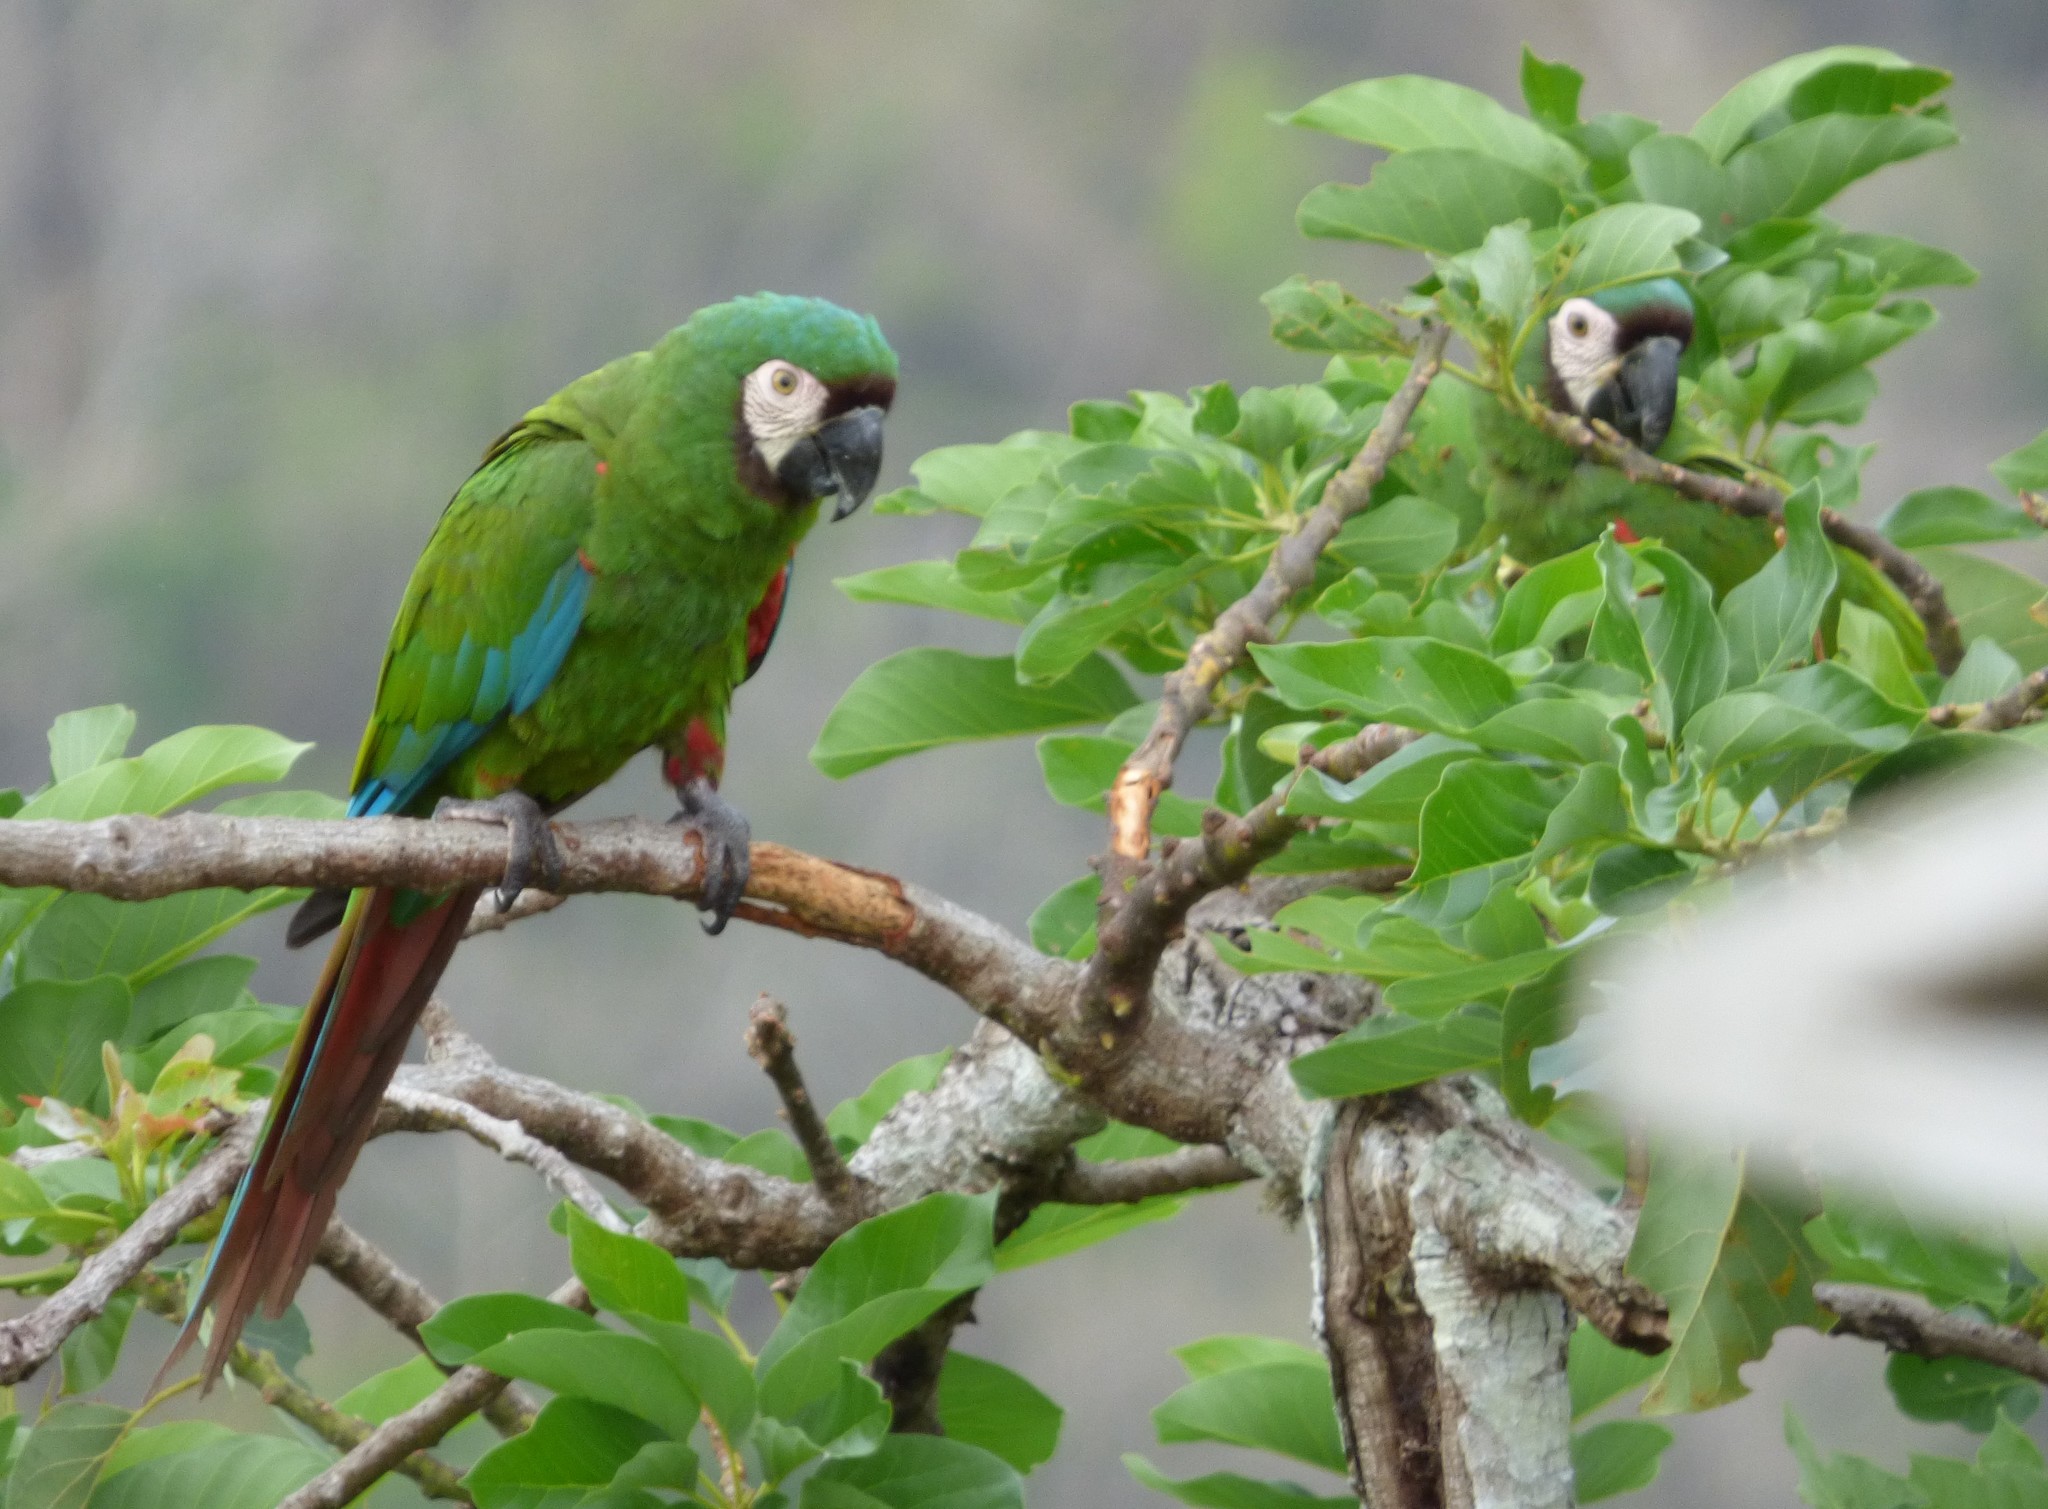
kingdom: Animalia
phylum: Chordata
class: Aves
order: Psittaciformes
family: Psittacidae
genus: Ara
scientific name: Ara severus
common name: Chestnut-fronted macaw
